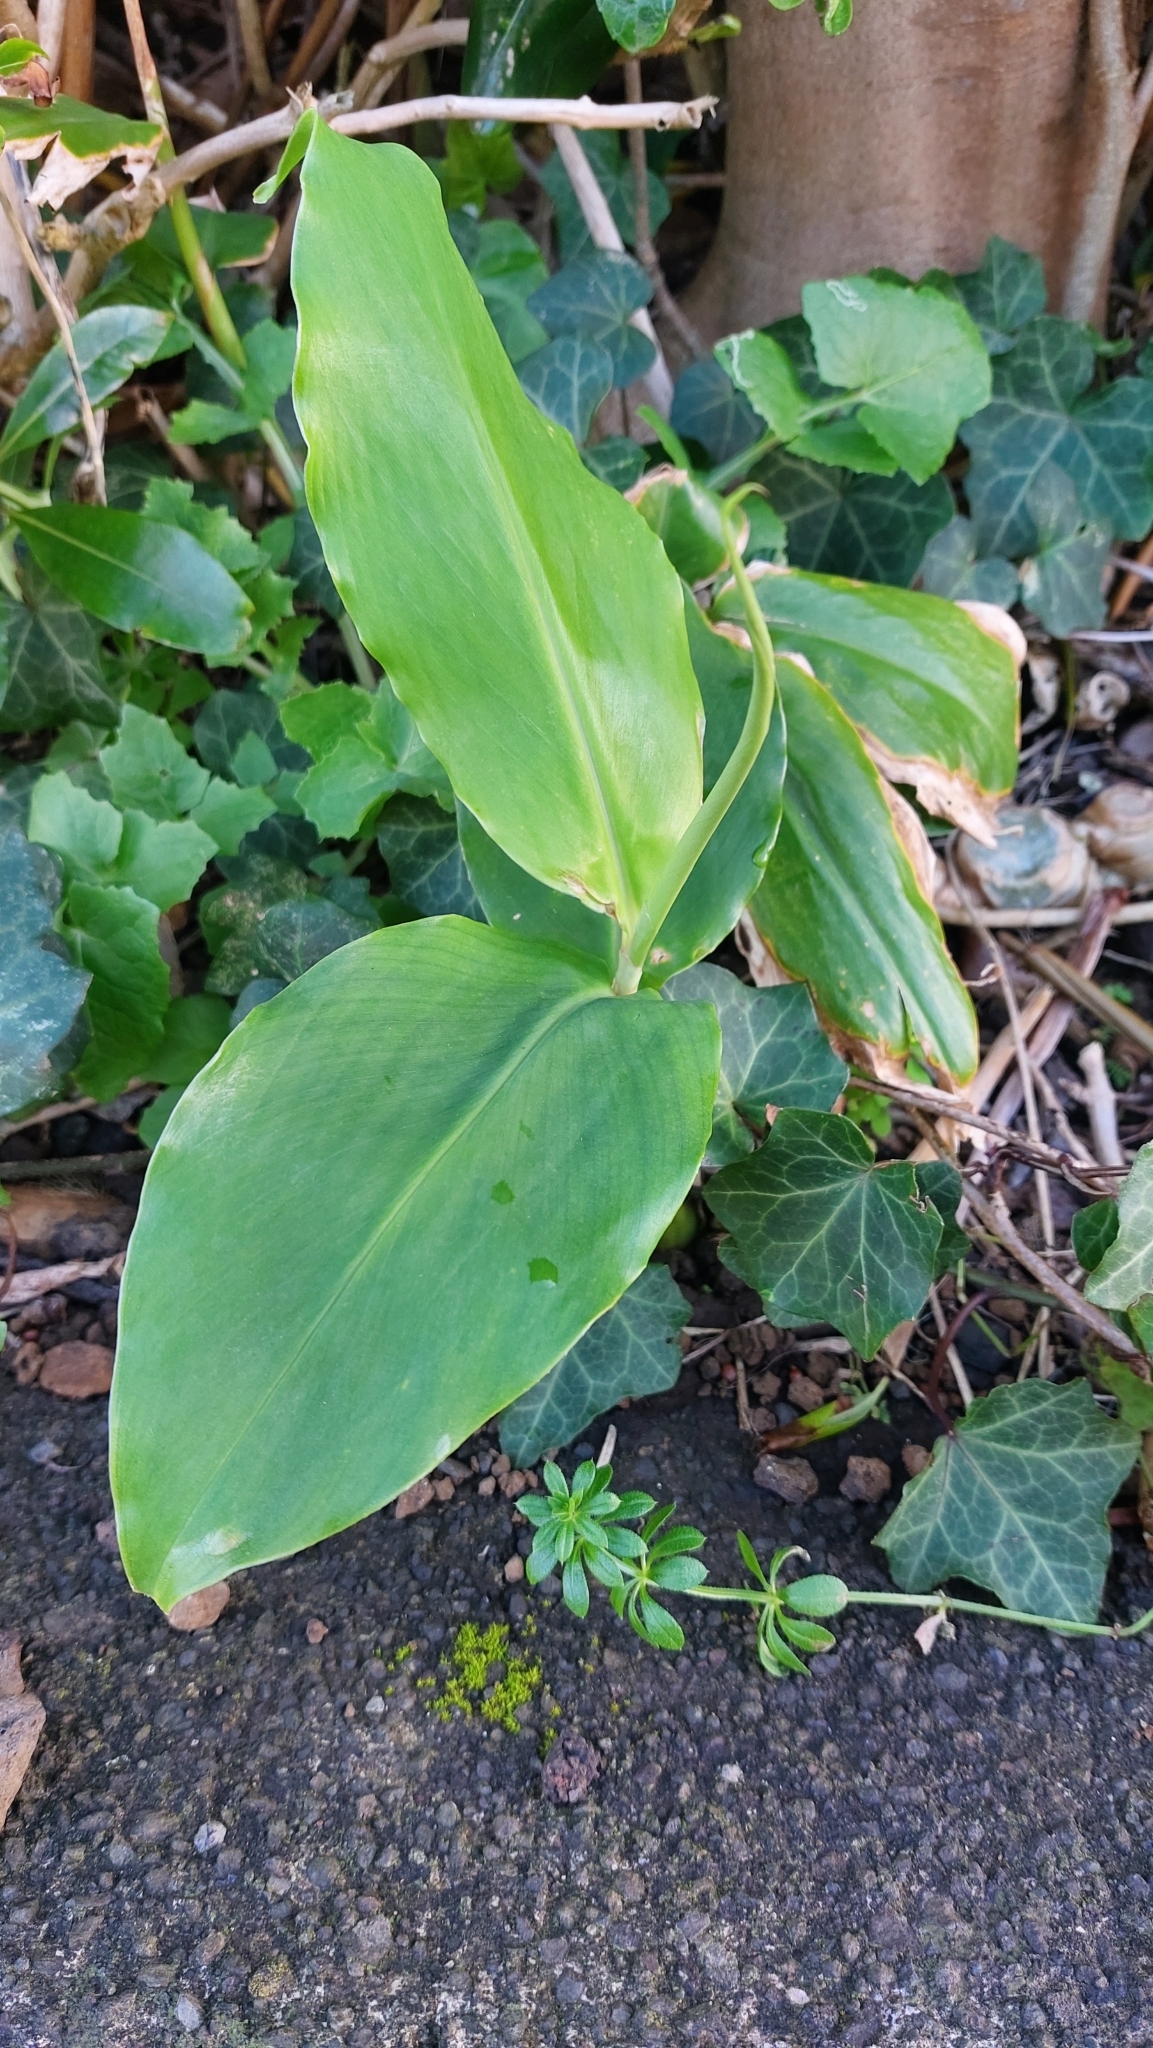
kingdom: Plantae
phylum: Tracheophyta
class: Liliopsida
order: Zingiberales
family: Zingiberaceae
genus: Hedychium
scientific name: Hedychium gardnerianum
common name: Himalayan ginger
